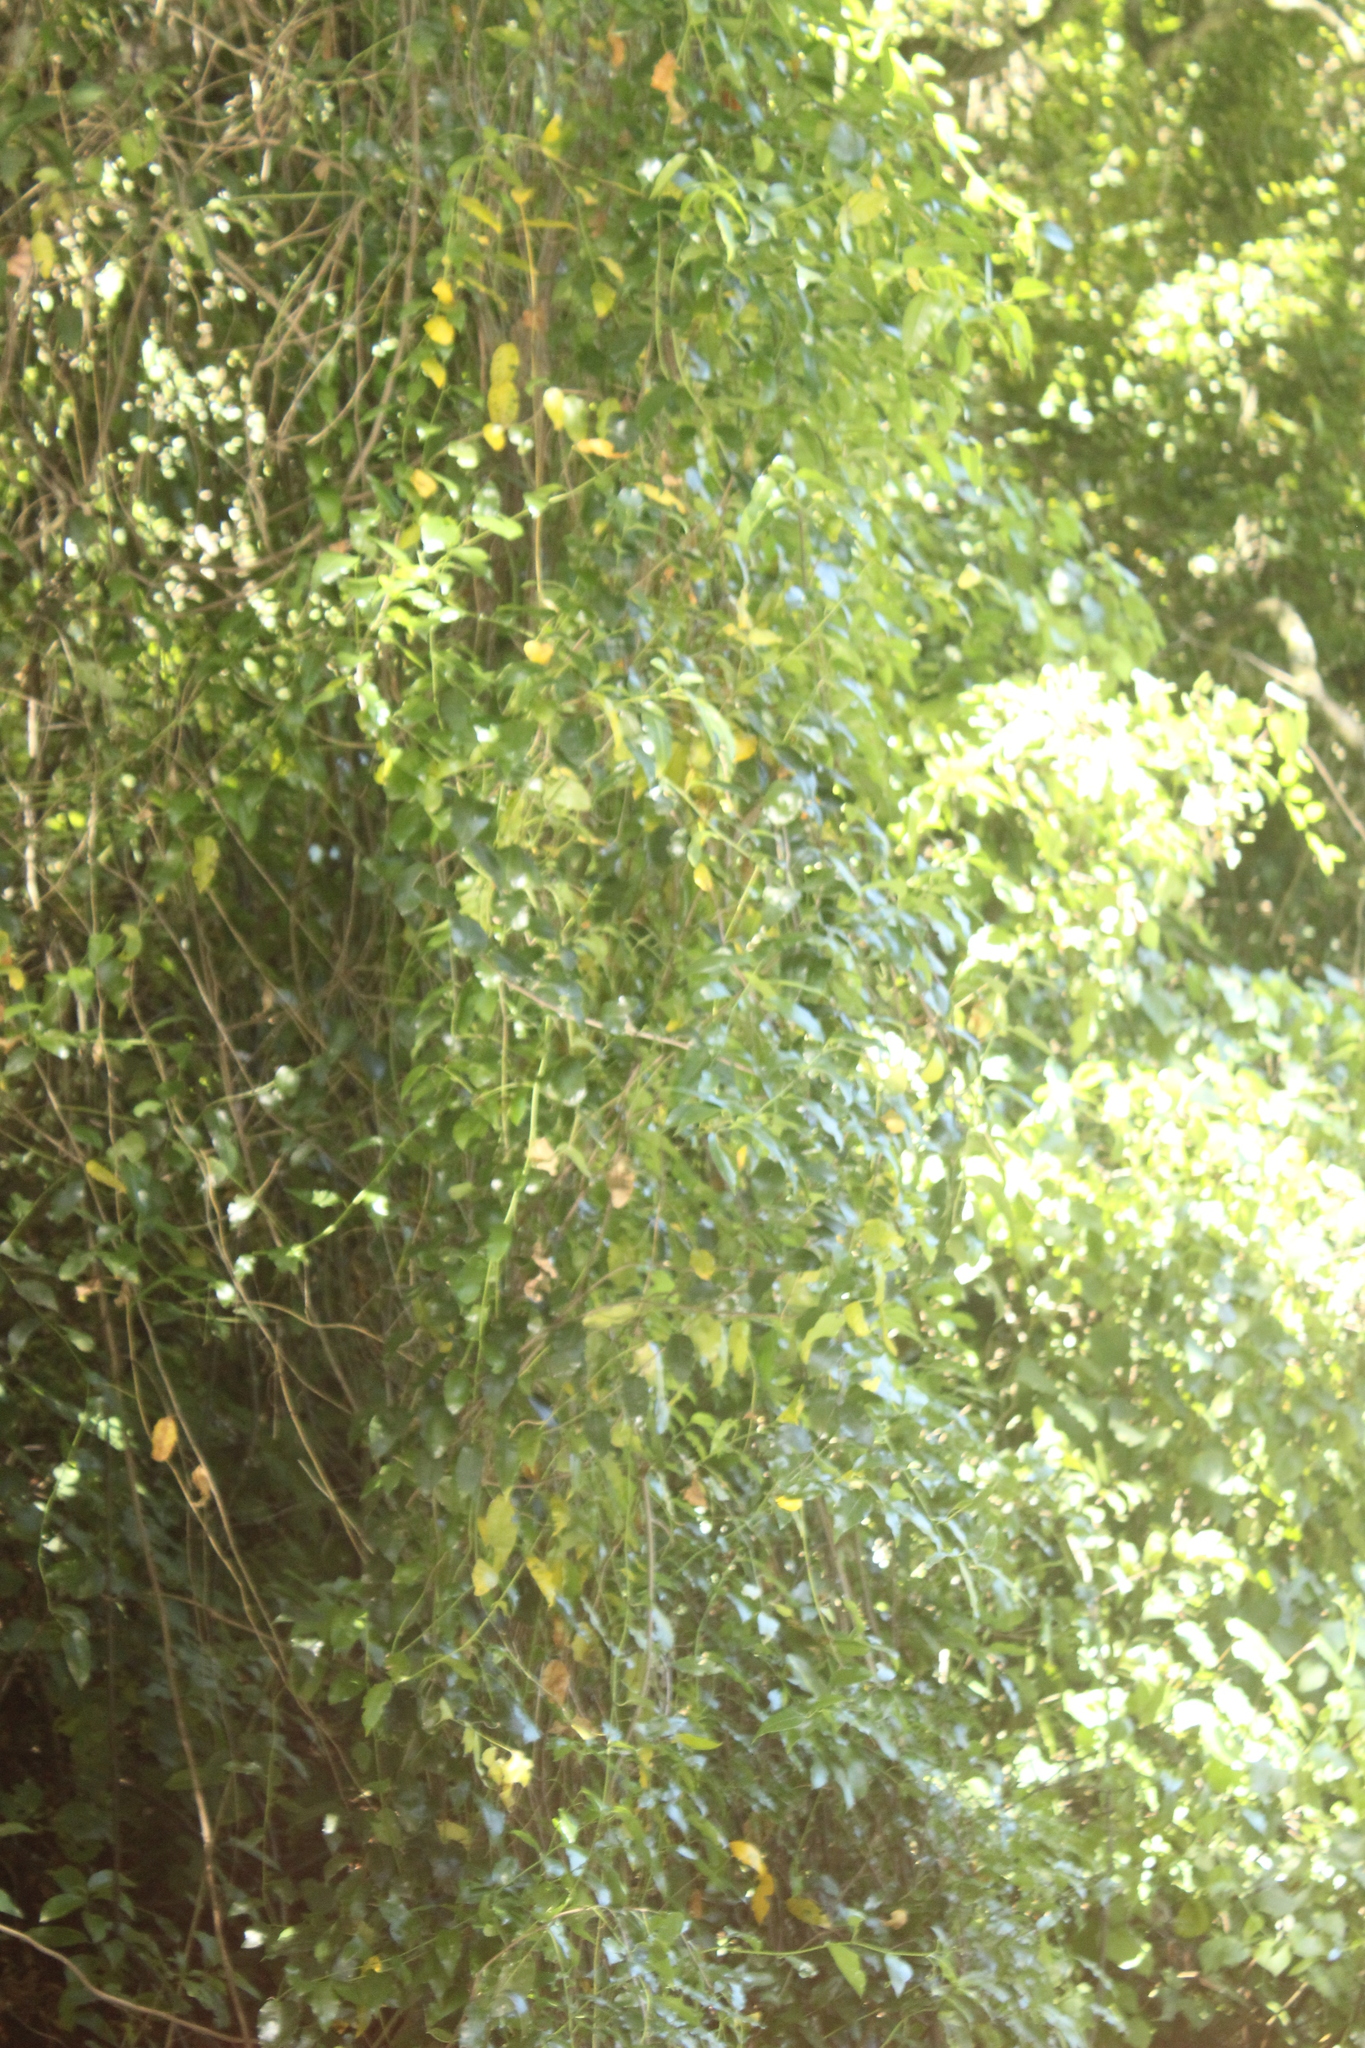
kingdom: Plantae
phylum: Tracheophyta
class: Magnoliopsida
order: Malpighiales
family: Passifloraceae
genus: Passiflora
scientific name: Passiflora tetrandra
